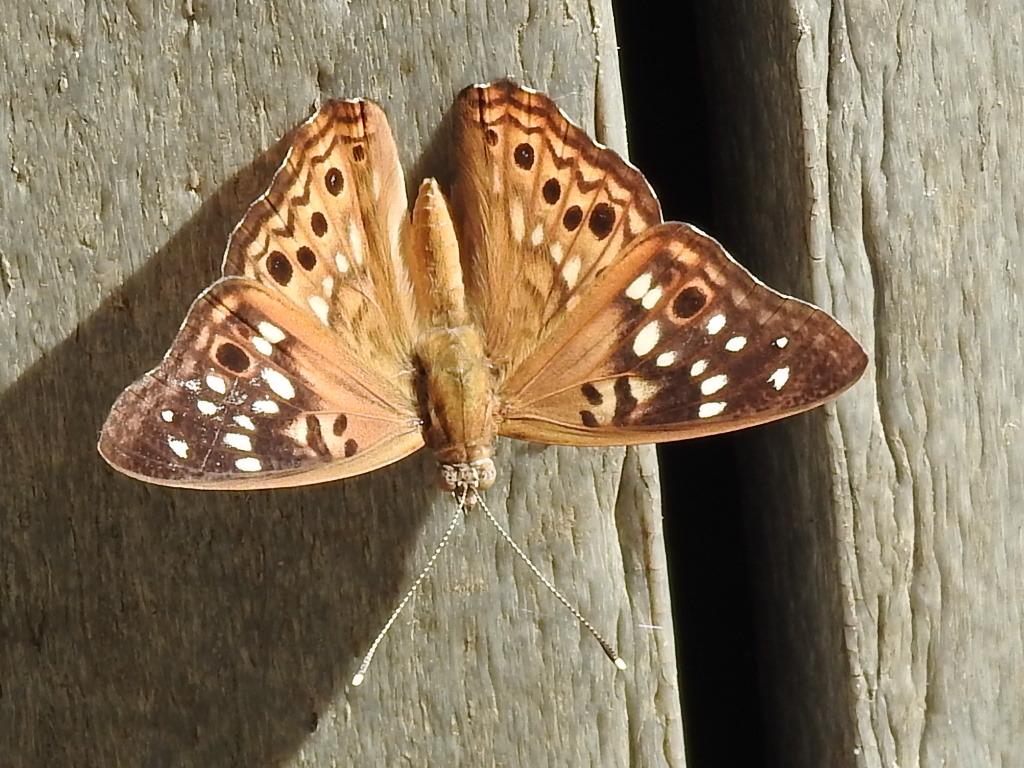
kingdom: Animalia
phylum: Arthropoda
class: Insecta
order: Lepidoptera
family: Nymphalidae
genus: Asterocampa
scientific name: Asterocampa celtis
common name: Hackberry emperor
